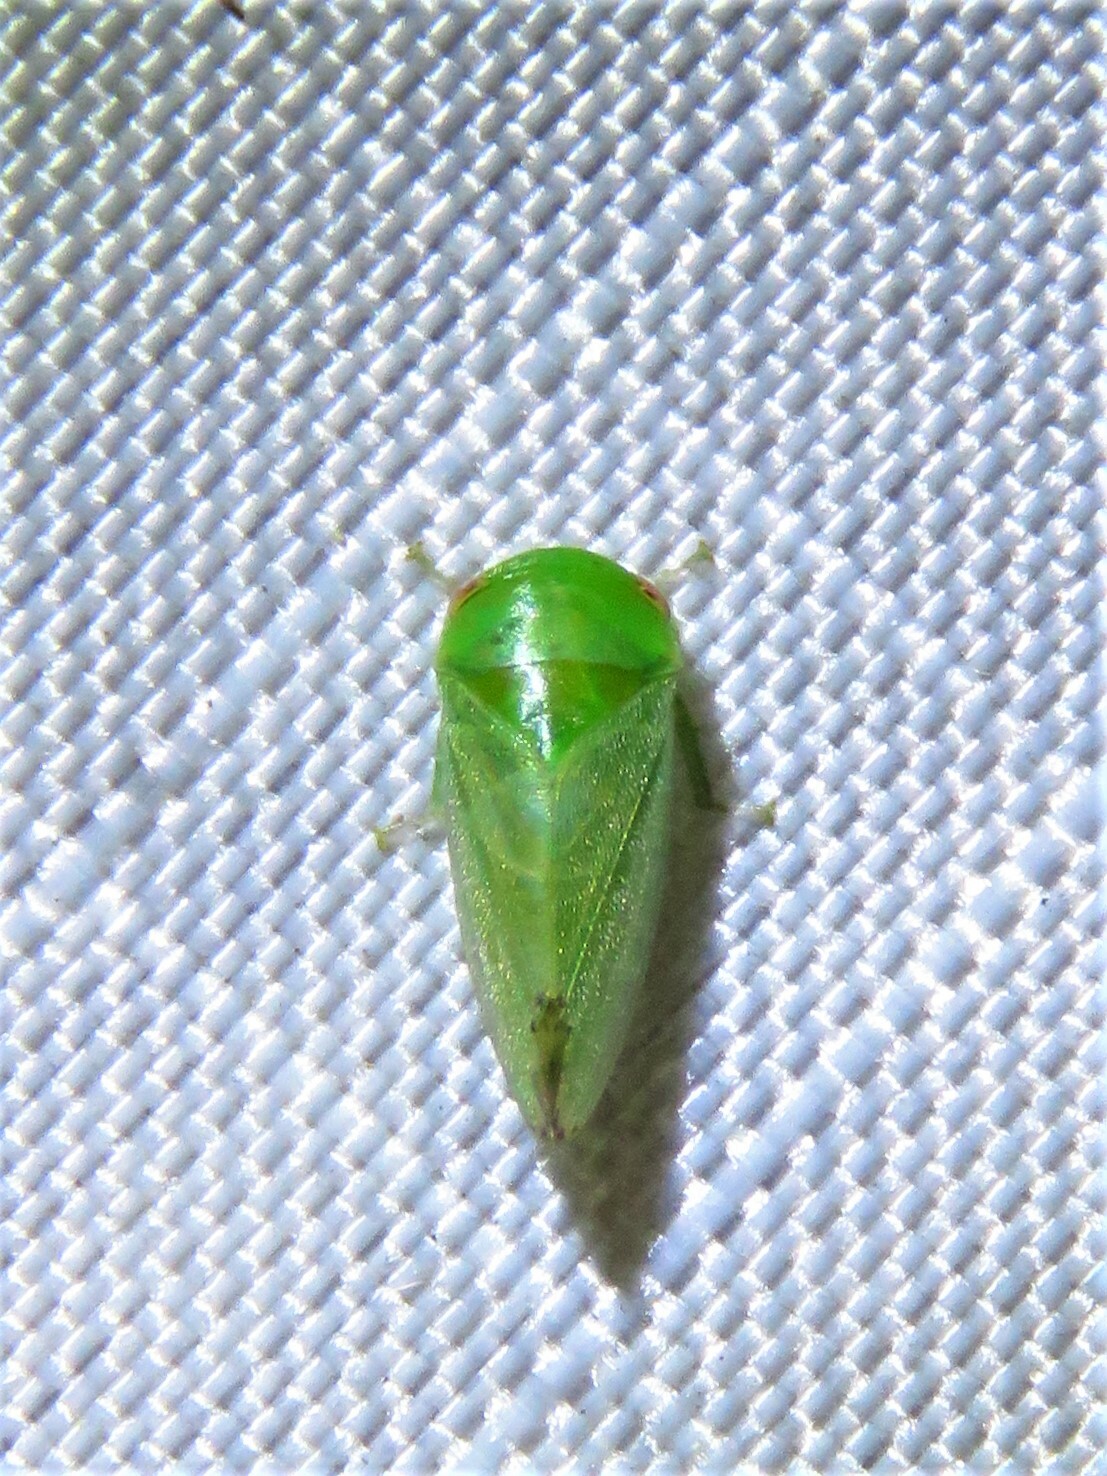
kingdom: Animalia
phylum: Arthropoda
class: Insecta
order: Hemiptera
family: Cicadellidae
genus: Penestragania
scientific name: Penestragania robusta
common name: Robust leafhopper
